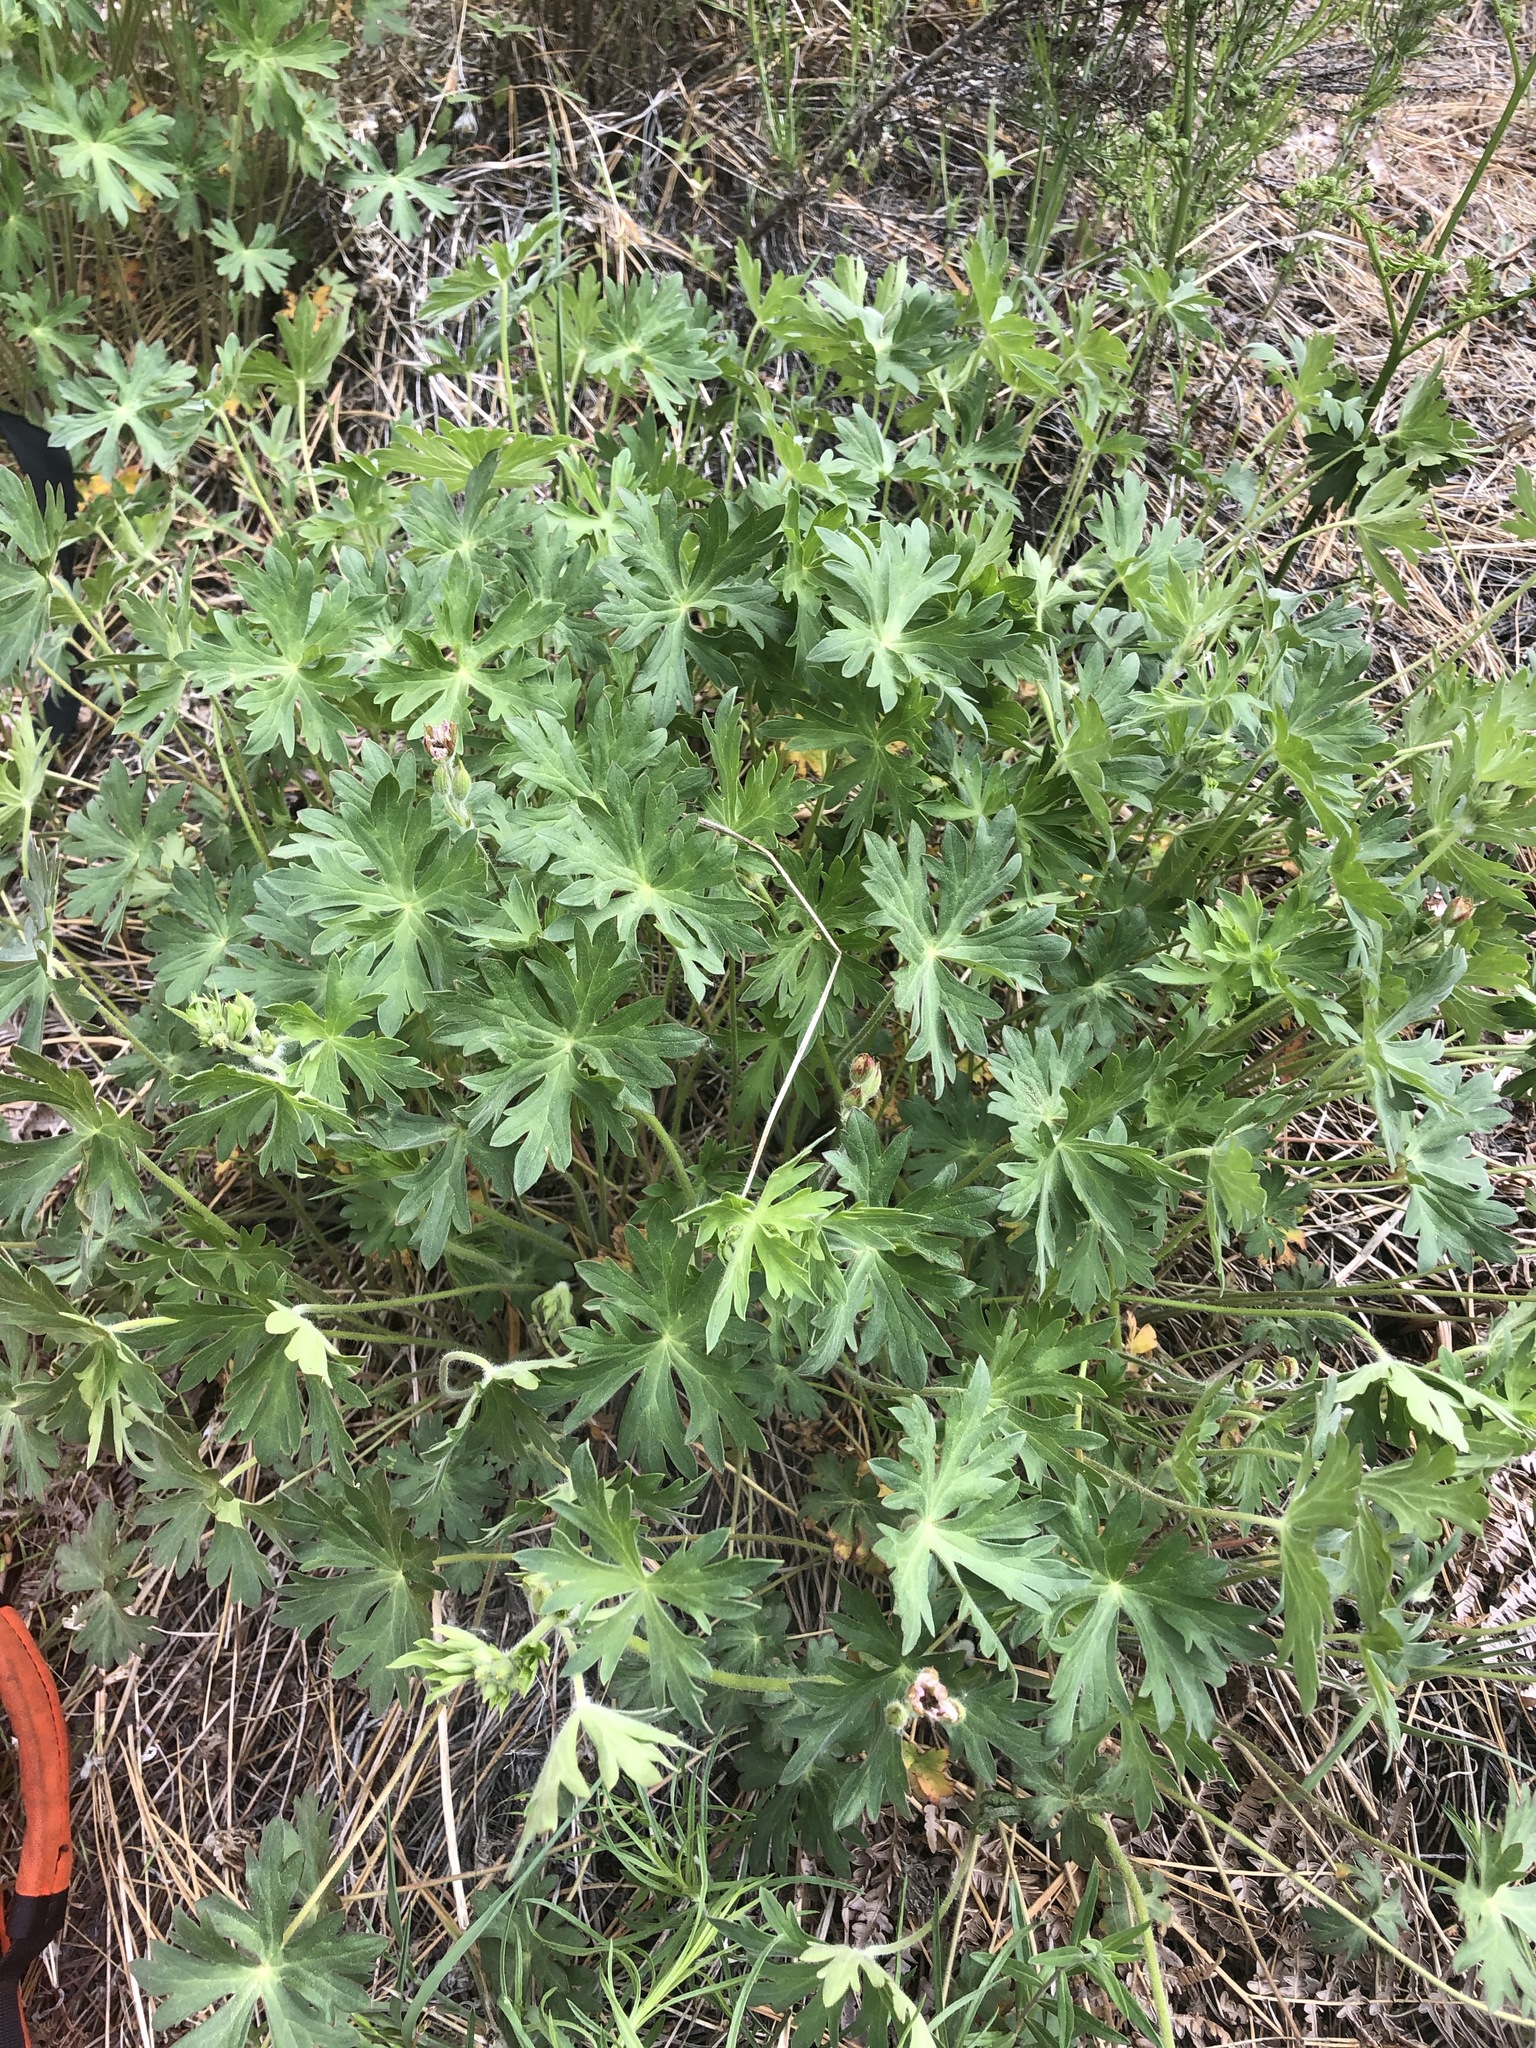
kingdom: Plantae
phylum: Tracheophyta
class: Magnoliopsida
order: Geraniales
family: Geraniaceae
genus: Geranium
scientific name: Geranium
